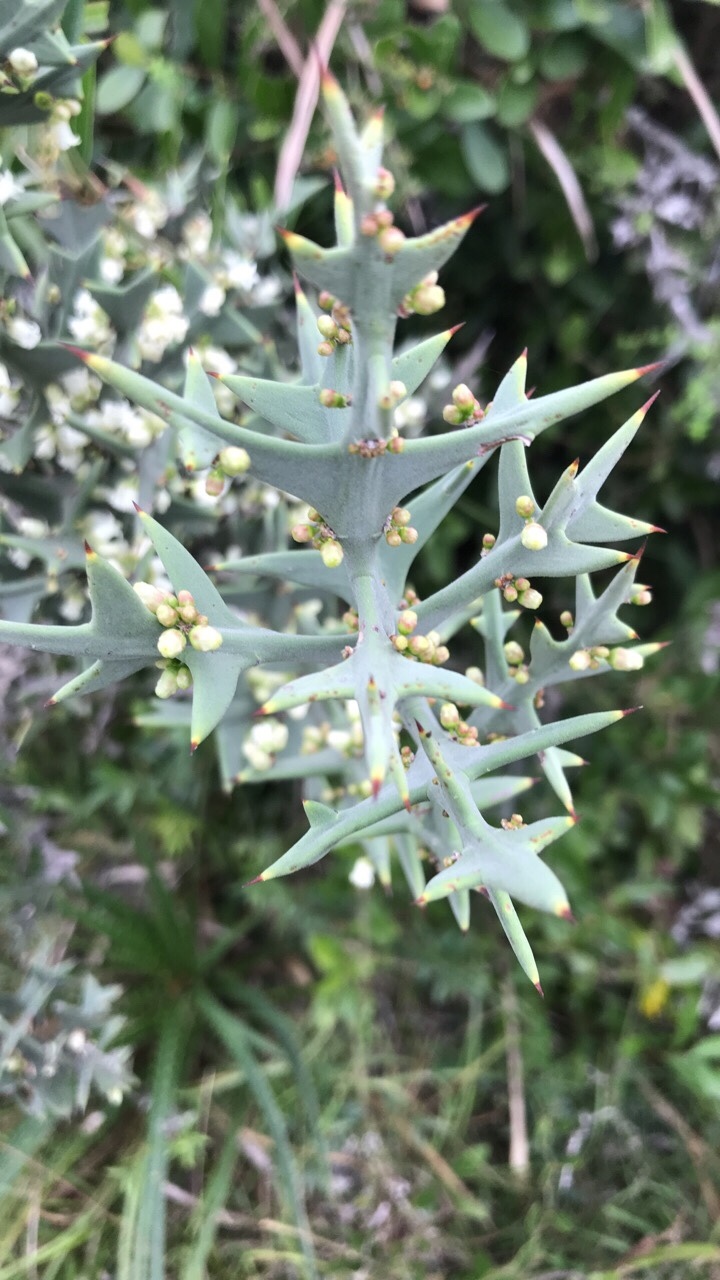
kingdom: Plantae
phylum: Tracheophyta
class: Magnoliopsida
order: Rosales
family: Rhamnaceae
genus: Colletia
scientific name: Colletia paradoxa
